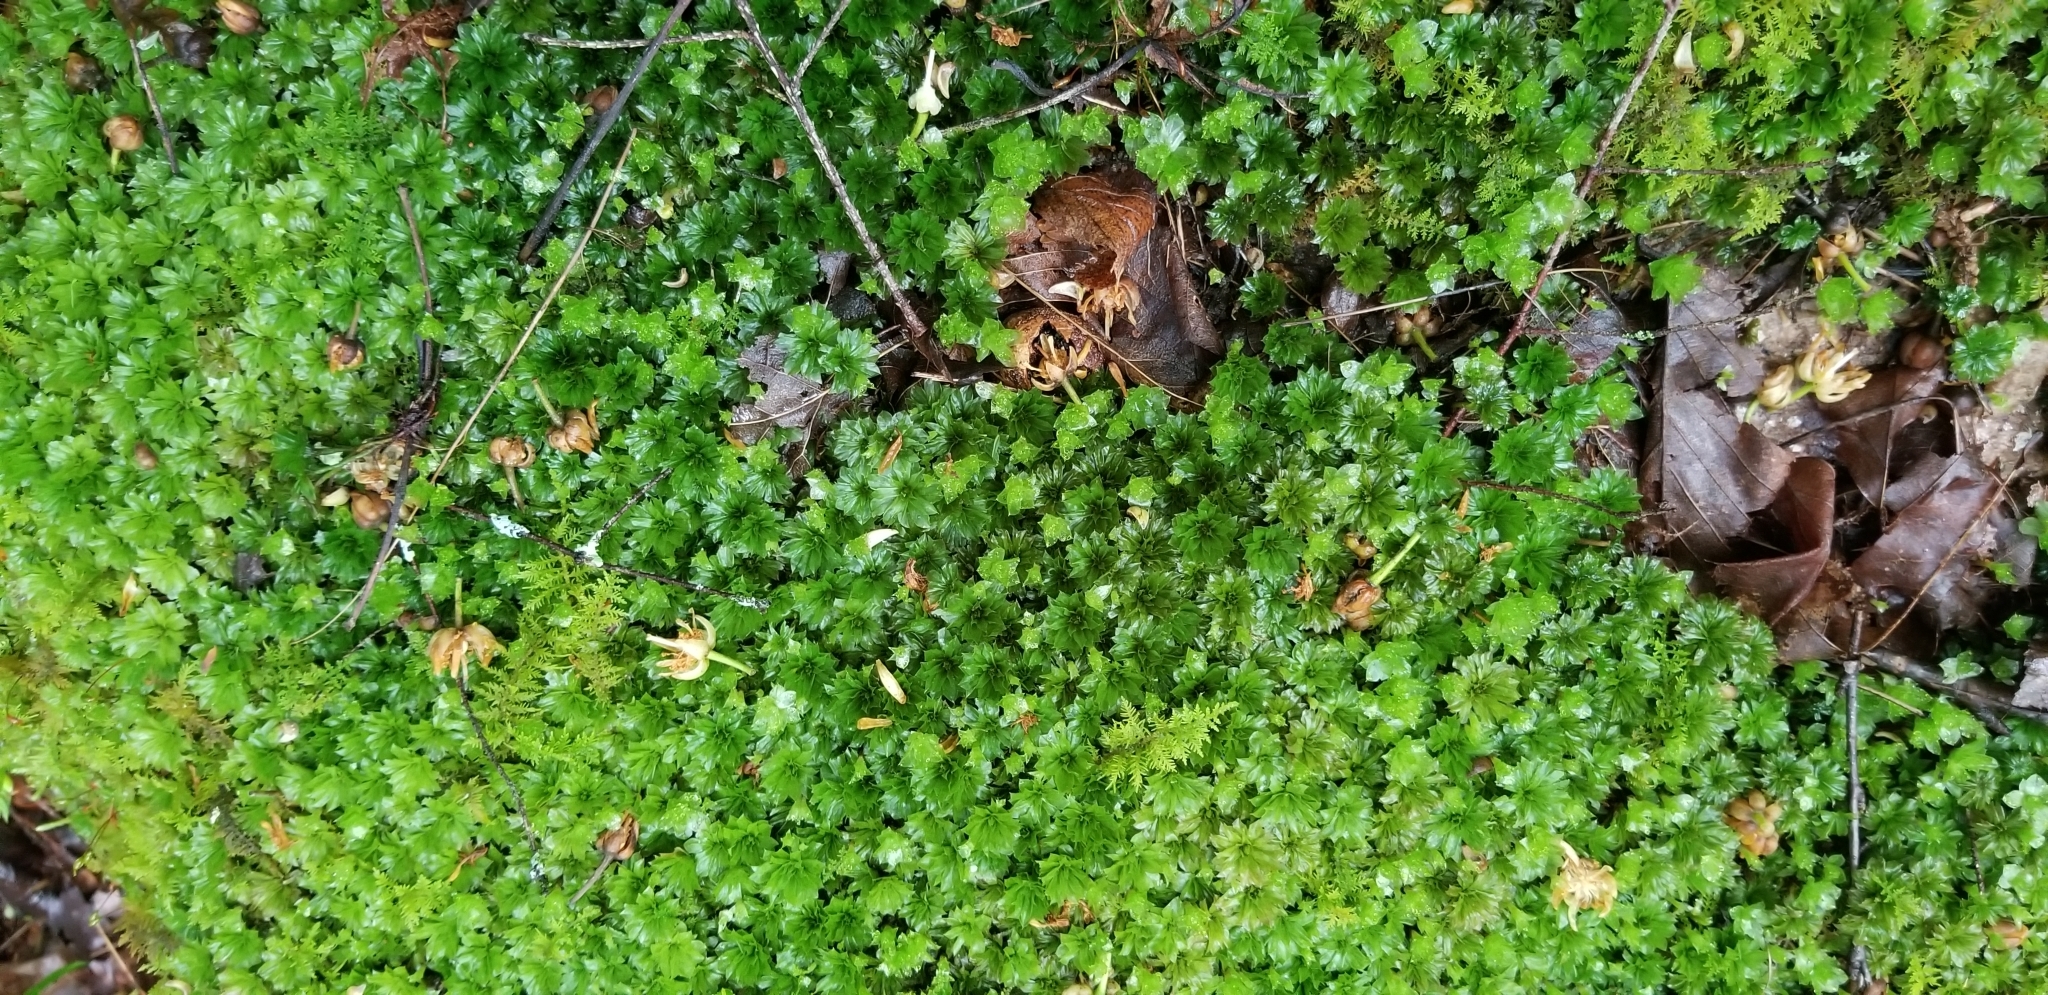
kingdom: Plantae
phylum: Bryophyta
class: Bryopsida
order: Bryales
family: Bryaceae
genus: Rhodobryum
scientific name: Rhodobryum ontariense
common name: Ontario rhodobryum moss
